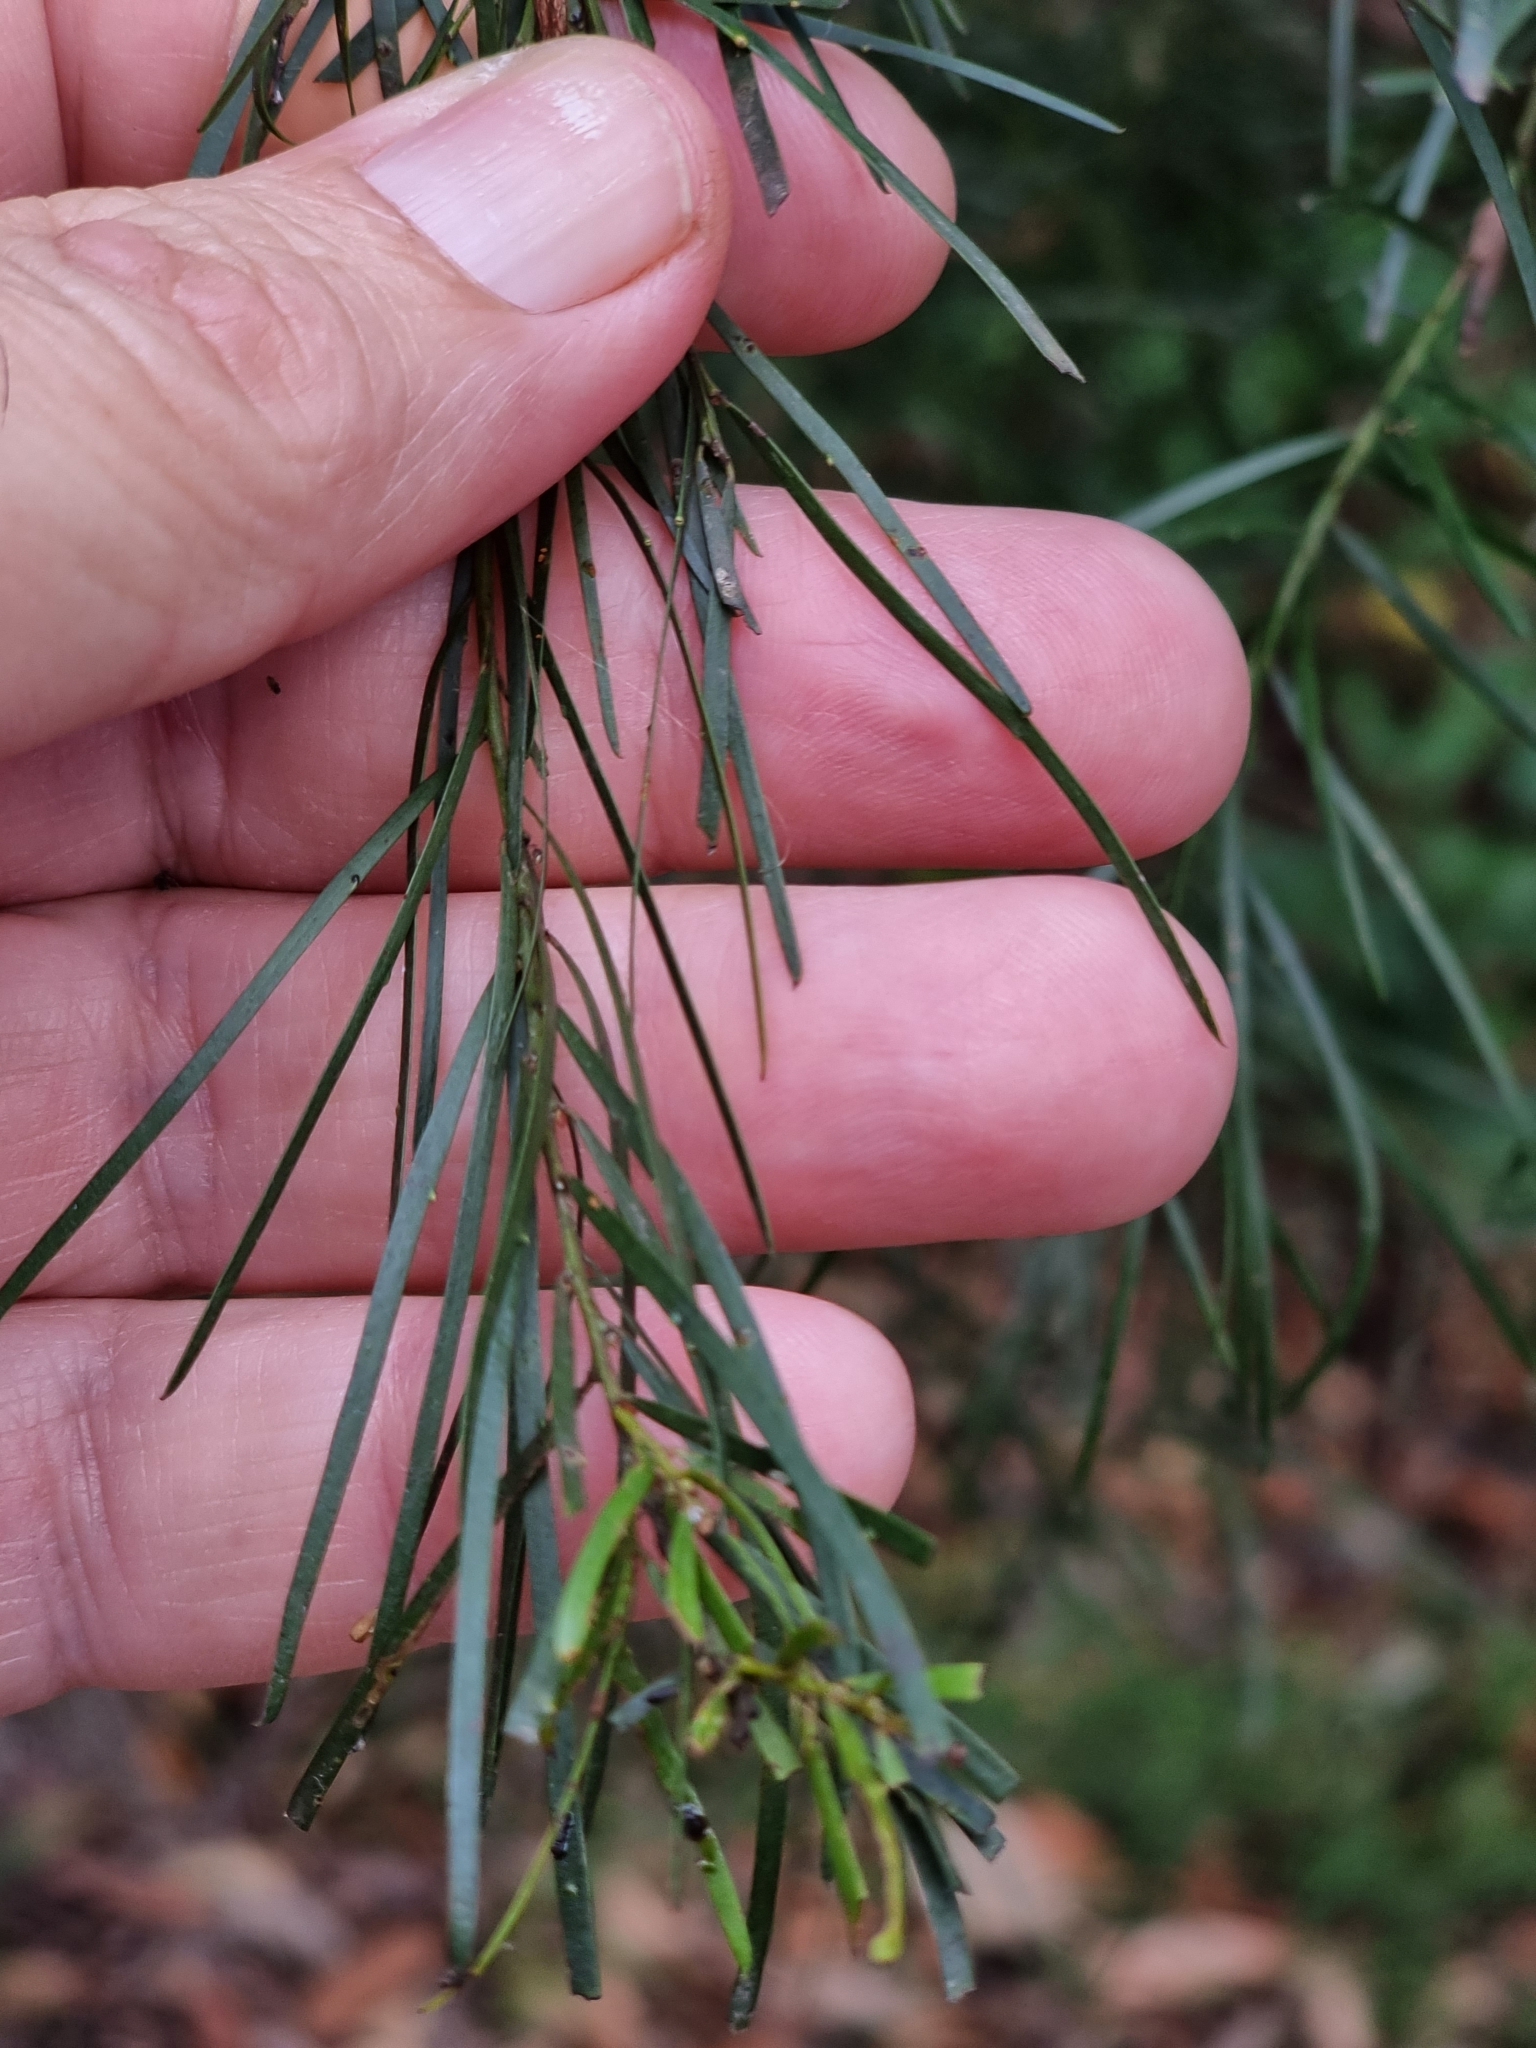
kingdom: Plantae
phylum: Tracheophyta
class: Magnoliopsida
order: Fabales
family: Fabaceae
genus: Acacia
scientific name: Acacia fimbriata
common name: Brisbane golden wattle
